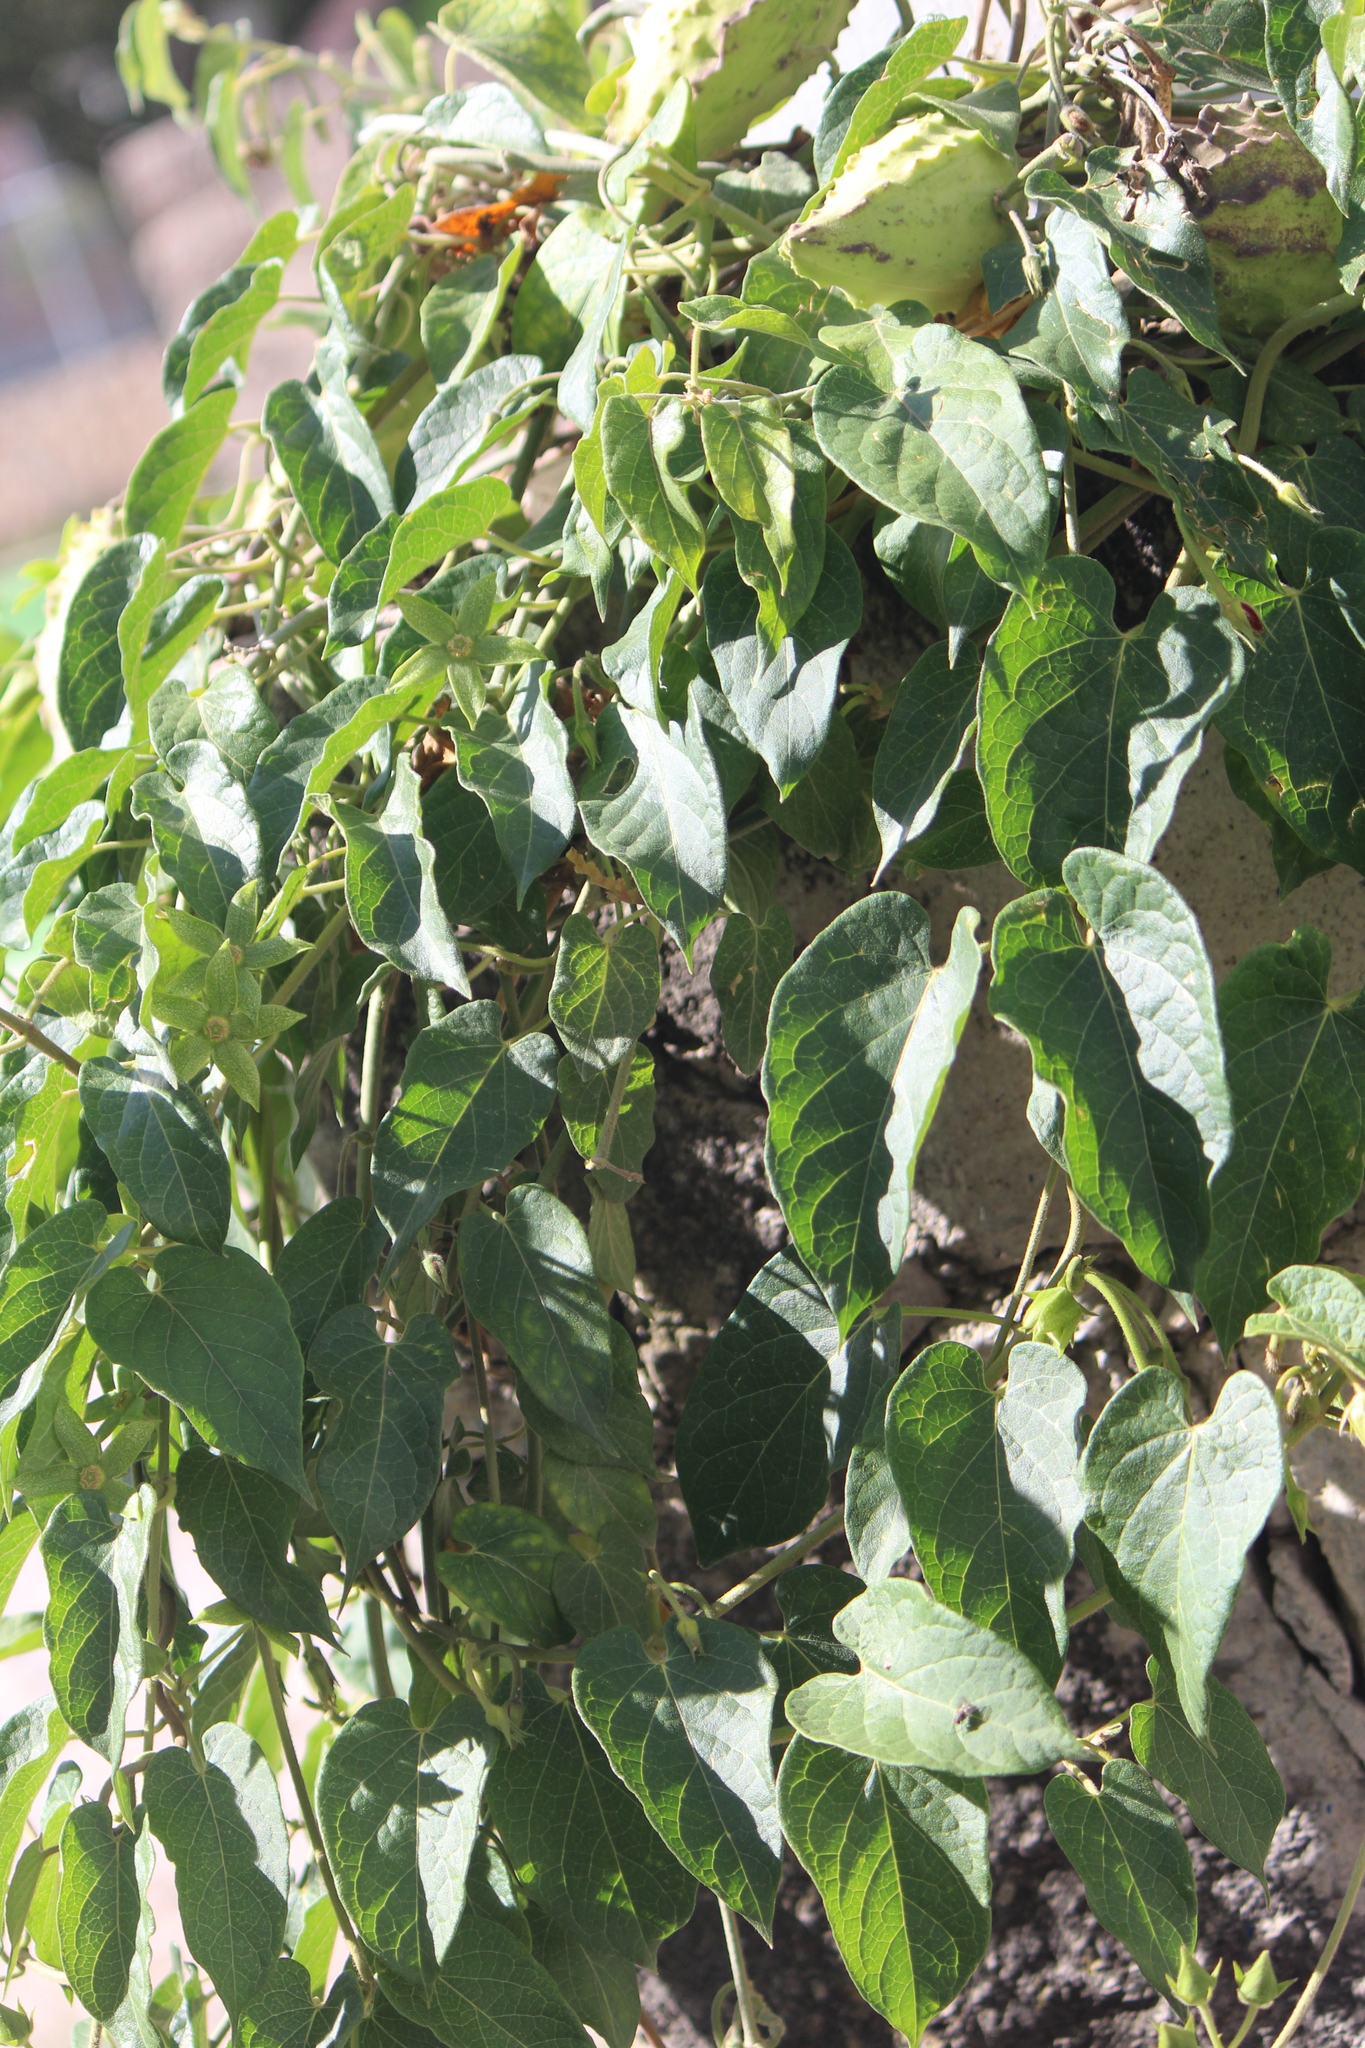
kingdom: Plantae
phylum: Tracheophyta
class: Magnoliopsida
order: Gentianales
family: Apocynaceae
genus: Gonolobus
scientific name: Gonolobus grandiflorus
